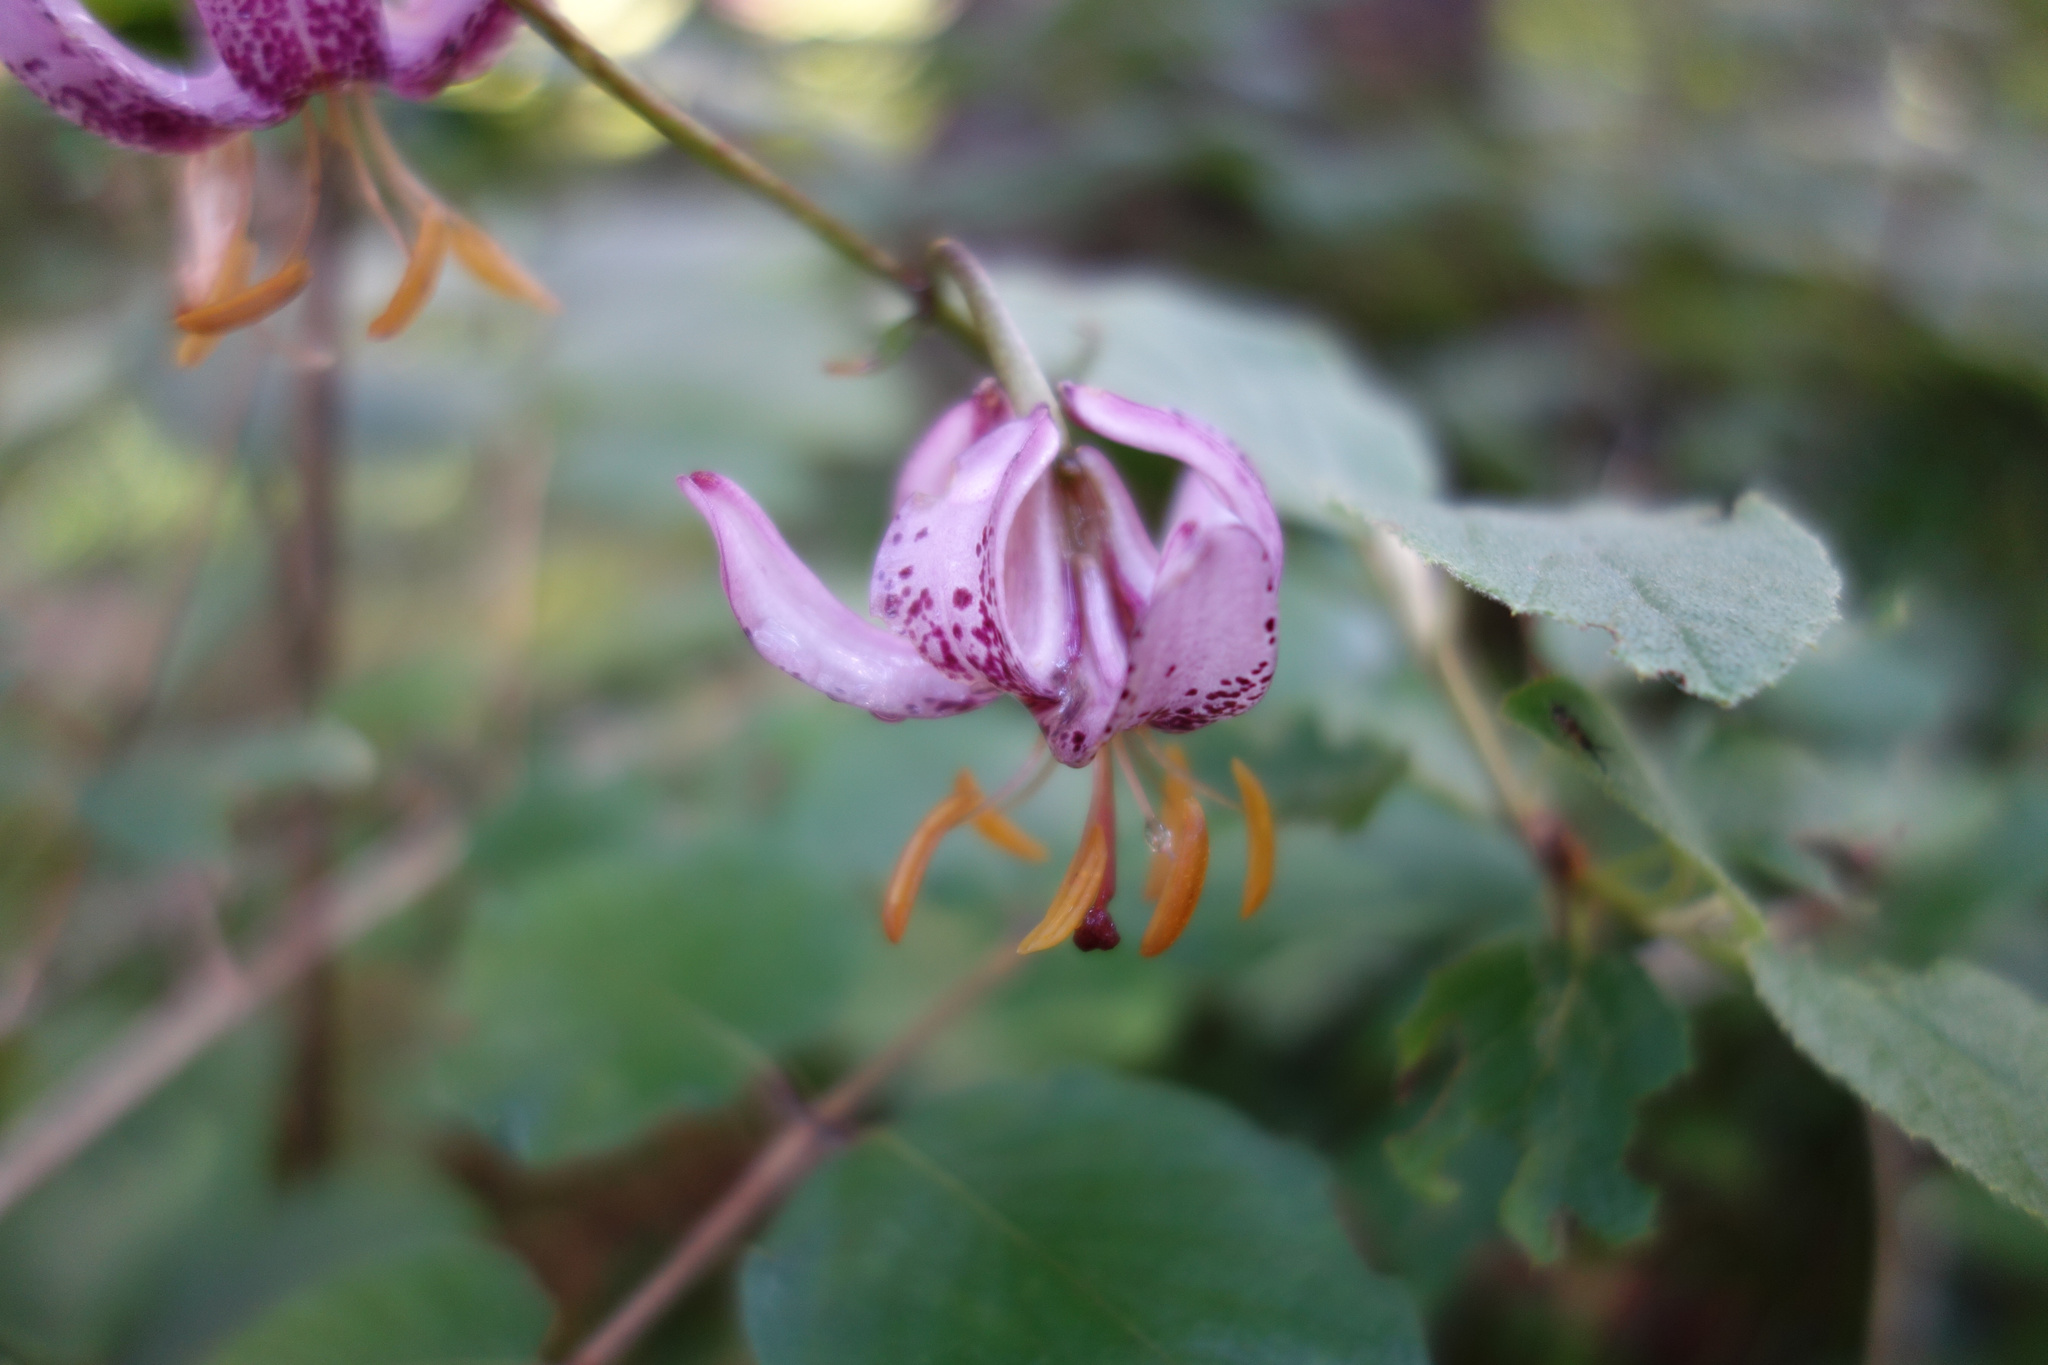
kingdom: Plantae
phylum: Tracheophyta
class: Liliopsida
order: Liliales
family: Liliaceae
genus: Lilium
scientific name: Lilium martagon
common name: Martagon lily
